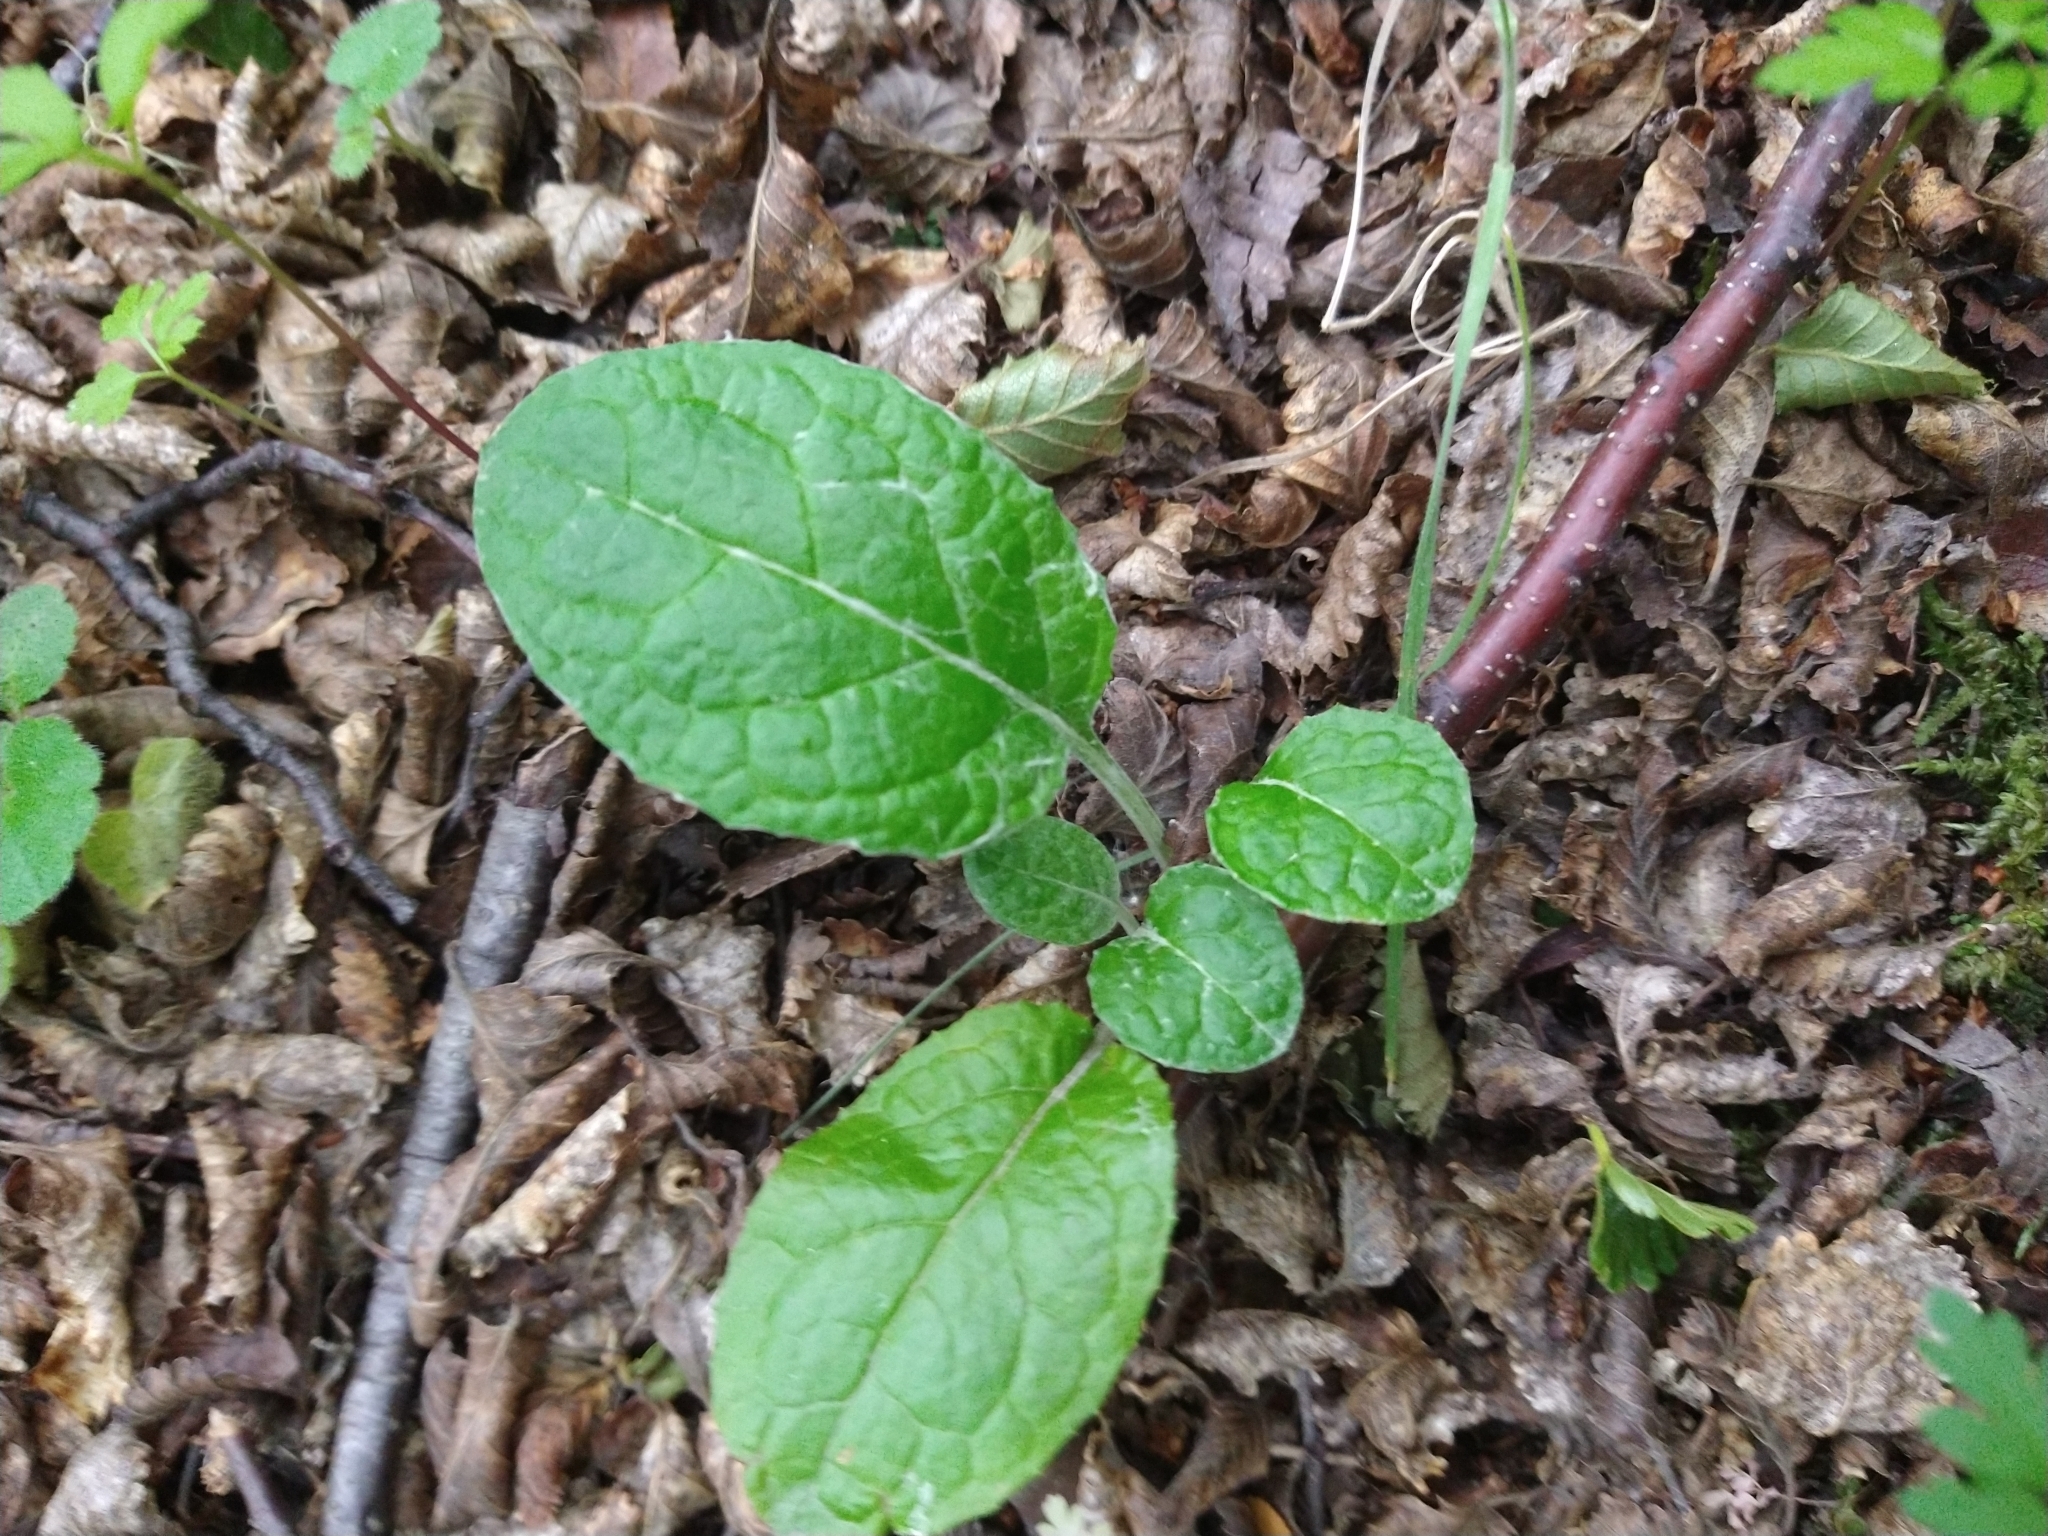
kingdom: Plantae
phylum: Tracheophyta
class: Magnoliopsida
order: Asterales
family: Asteraceae
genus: Adenocaulon
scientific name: Adenocaulon chilense
